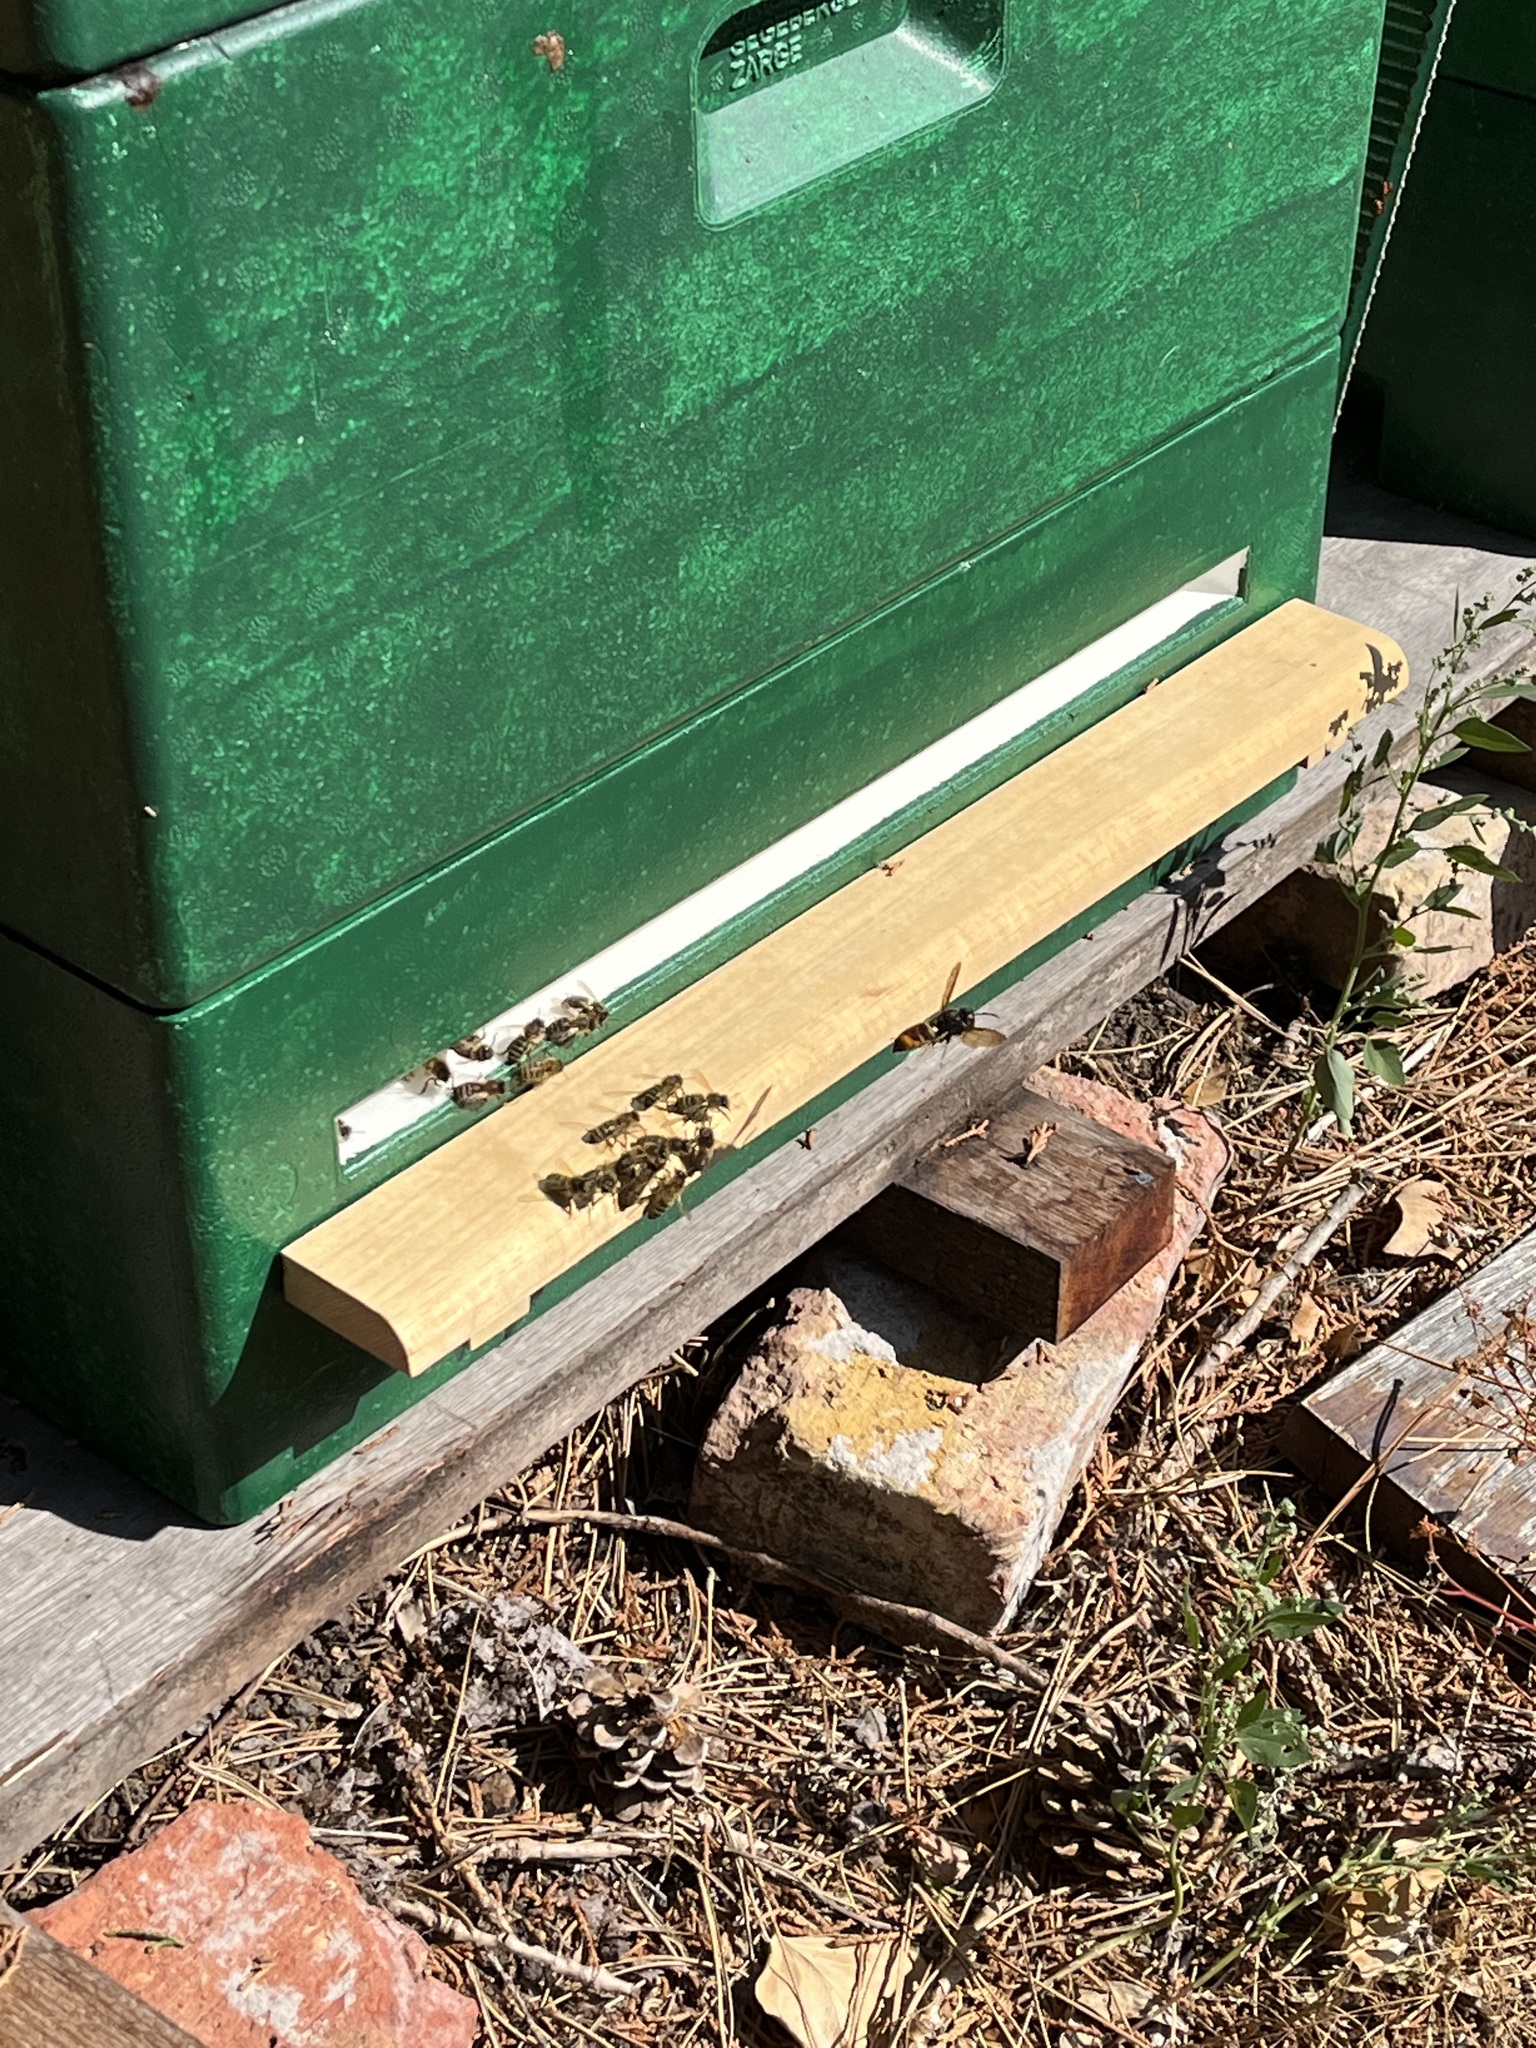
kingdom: Animalia
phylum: Arthropoda
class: Insecta
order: Hymenoptera
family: Vespidae
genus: Vespa
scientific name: Vespa velutina
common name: Asian hornet
